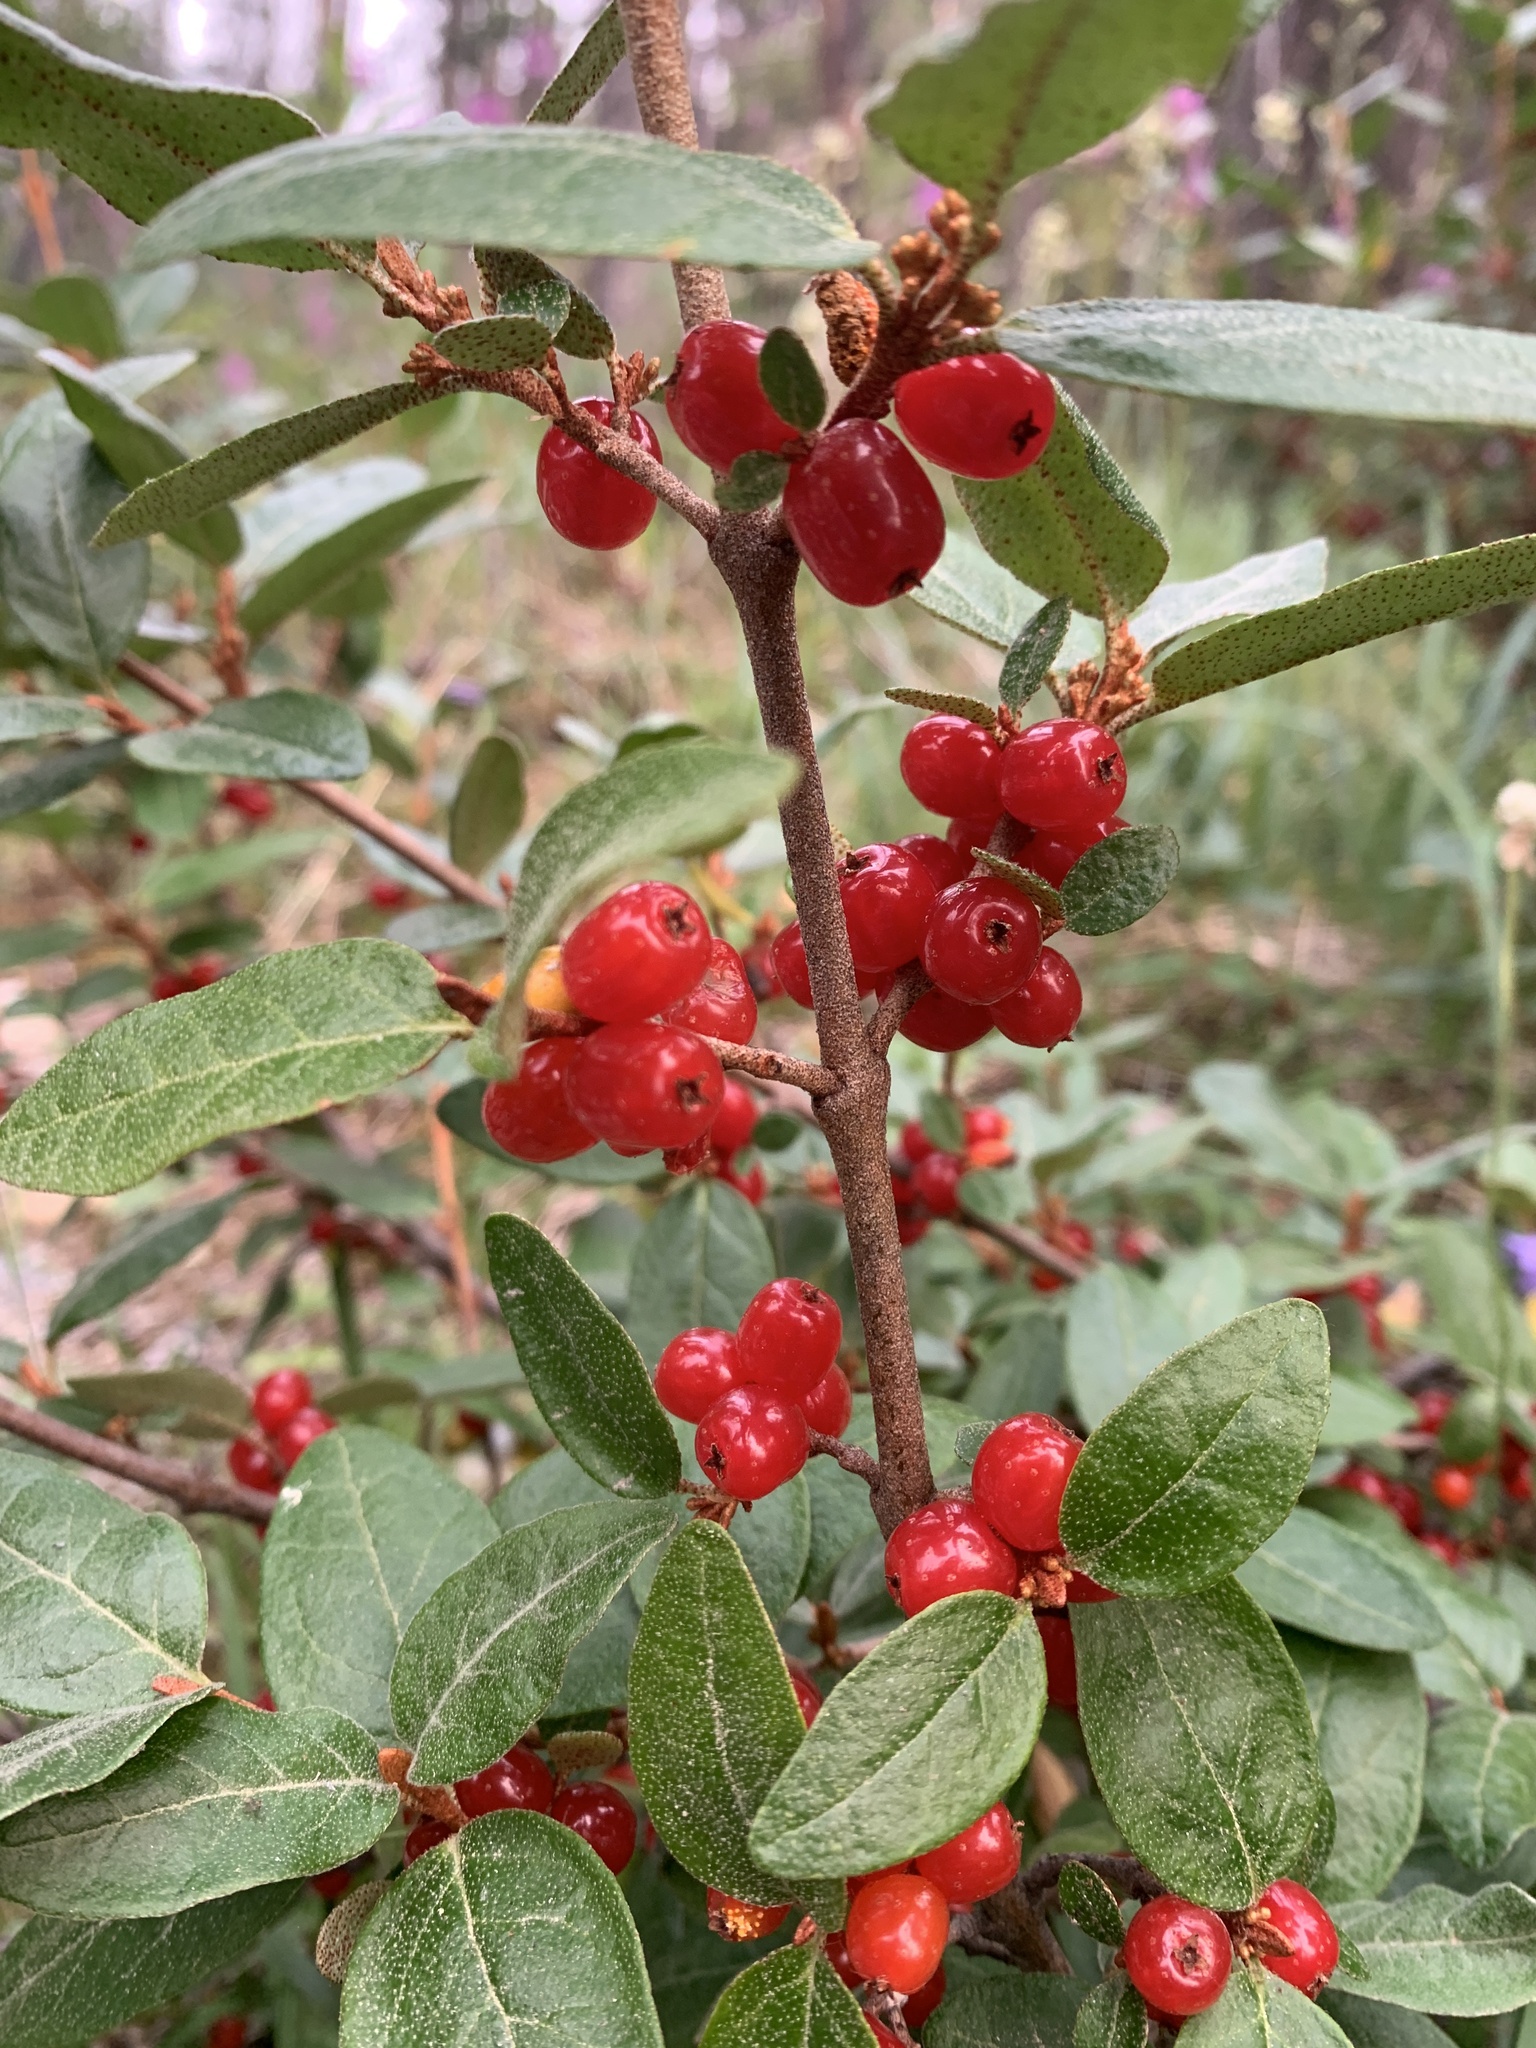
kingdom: Plantae
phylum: Tracheophyta
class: Magnoliopsida
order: Rosales
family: Elaeagnaceae
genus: Shepherdia
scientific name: Shepherdia canadensis
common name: Soapberry
